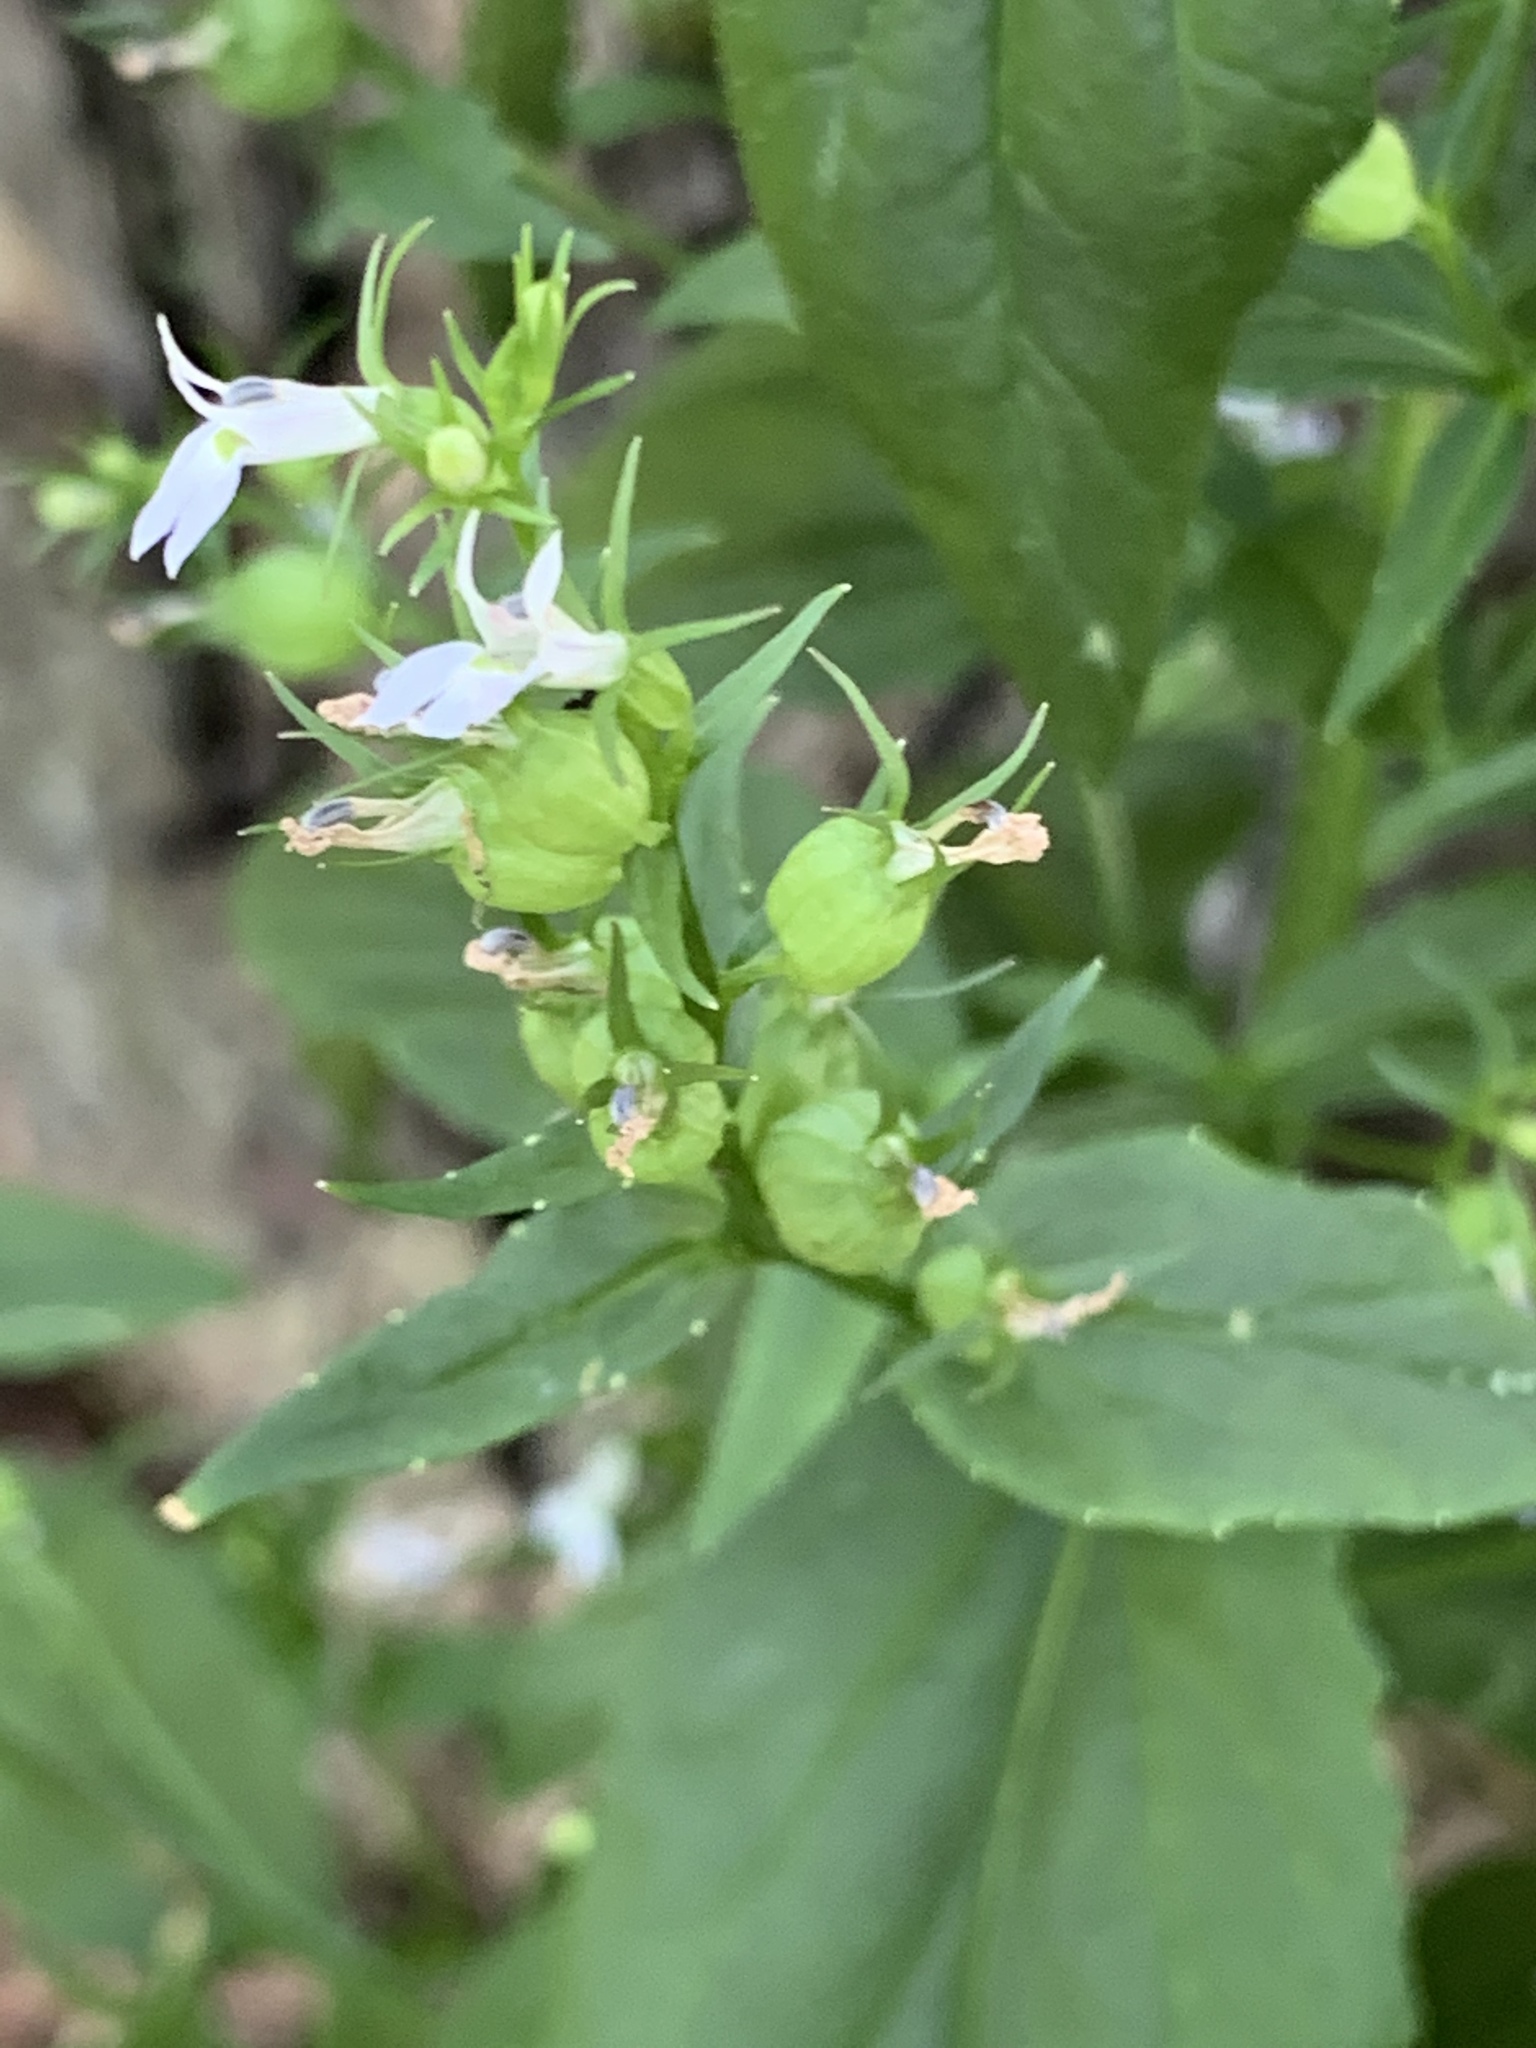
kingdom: Plantae
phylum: Tracheophyta
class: Magnoliopsida
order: Asterales
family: Campanulaceae
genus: Lobelia
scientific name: Lobelia inflata
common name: Indian tobacco
